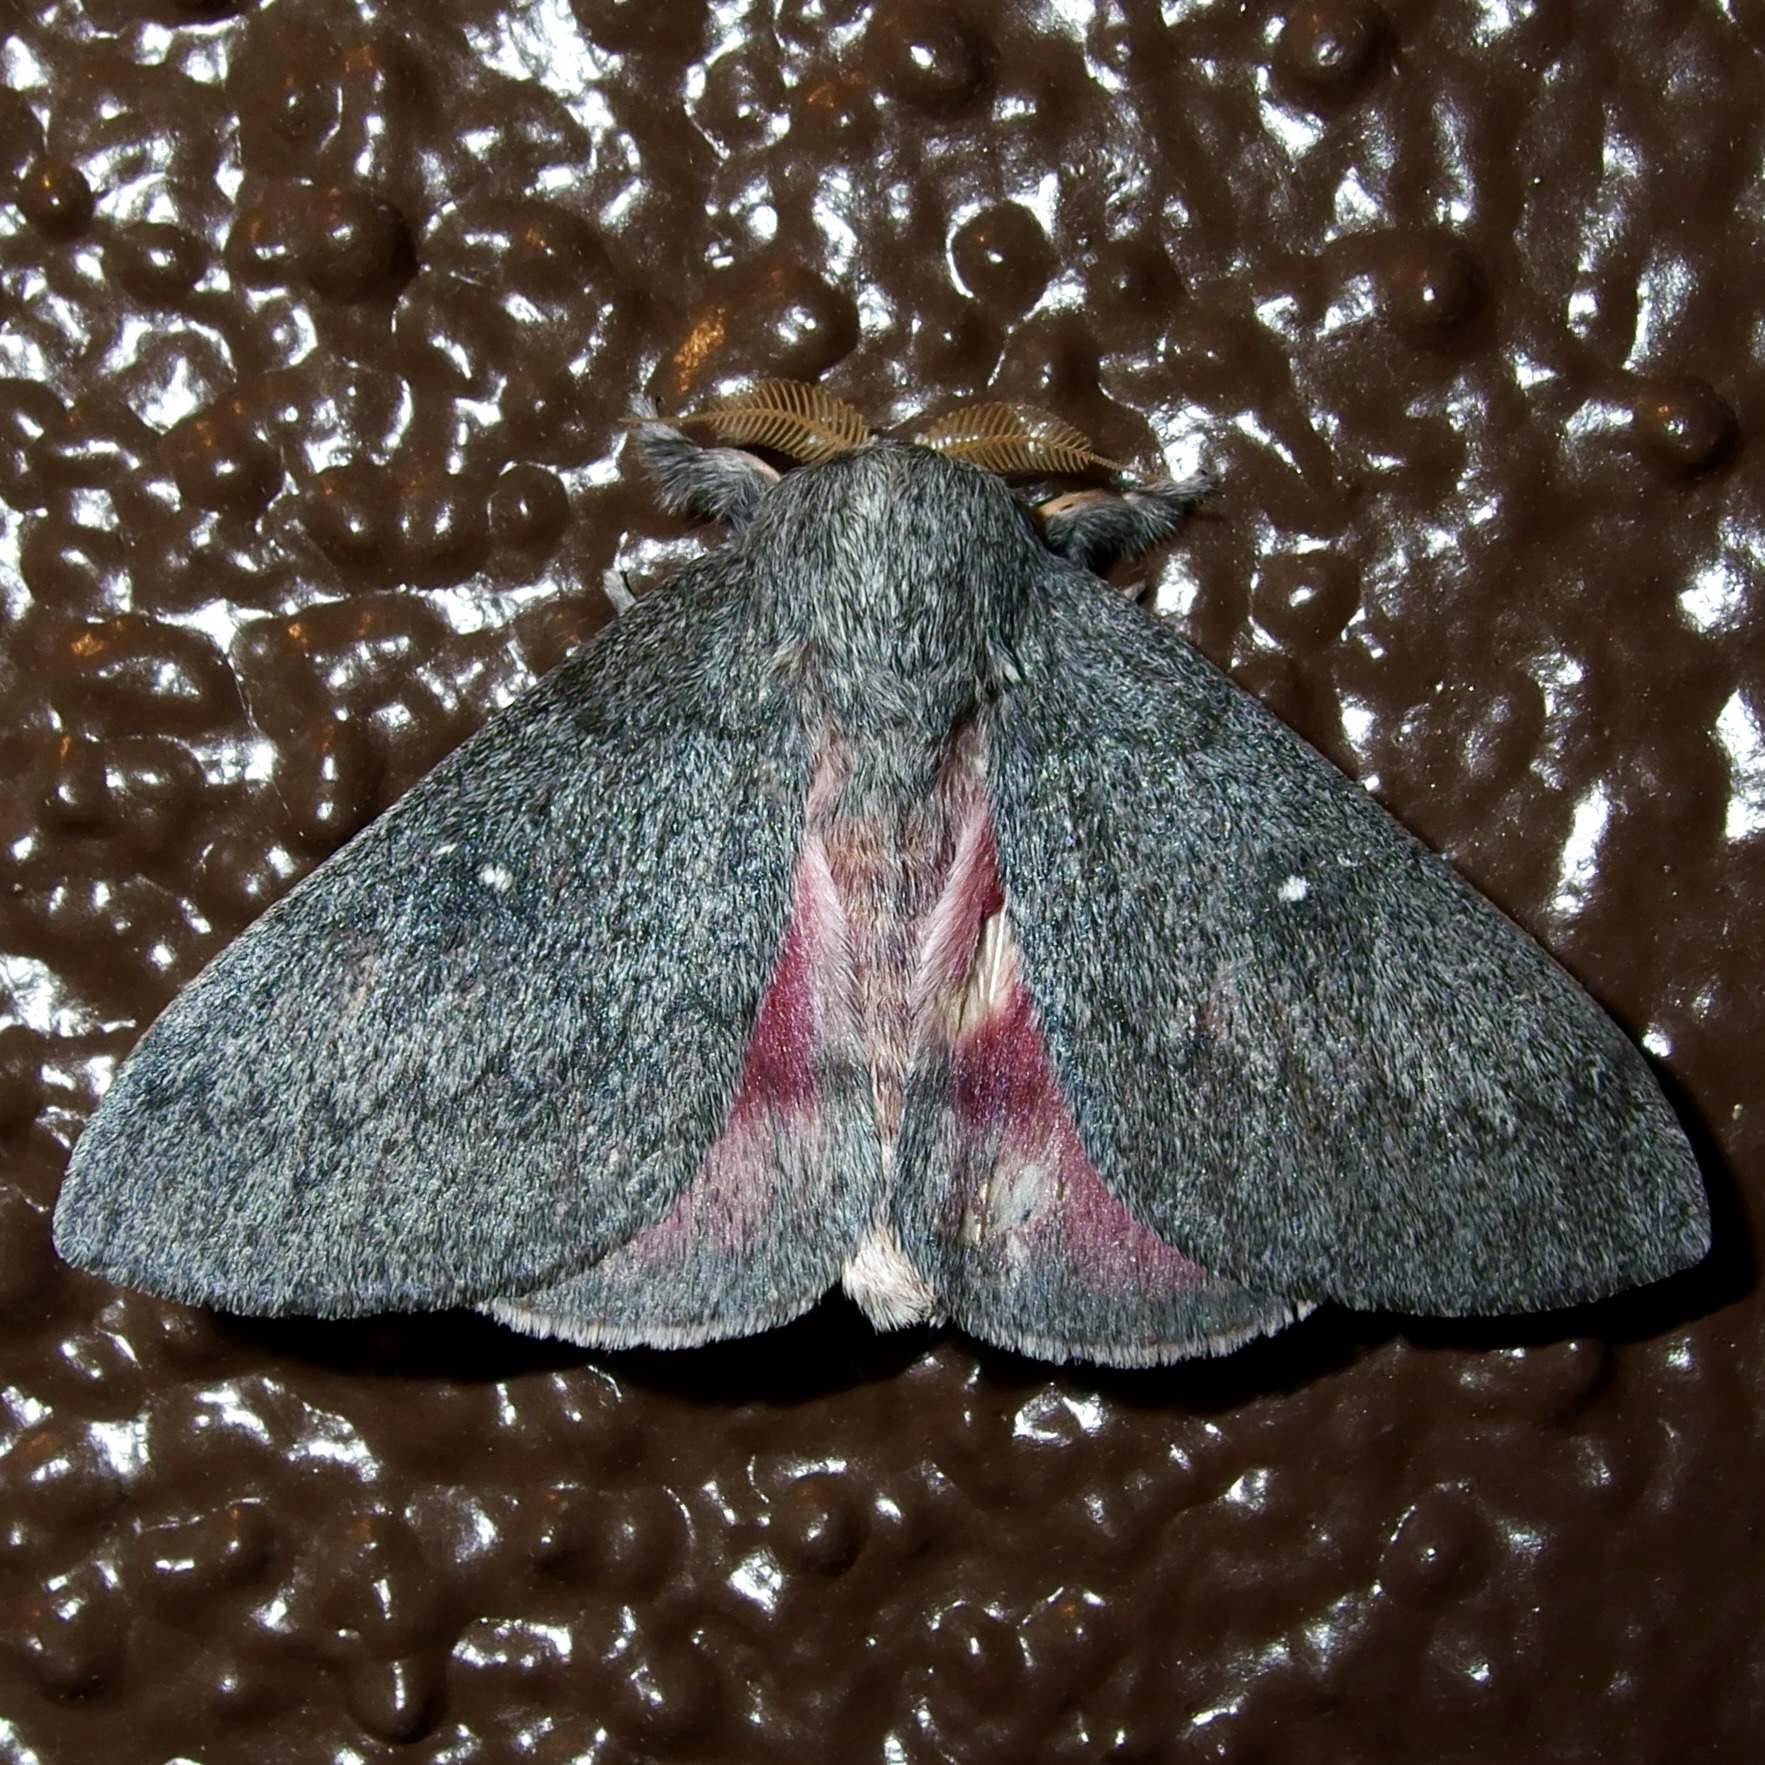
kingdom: Animalia
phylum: Arthropoda
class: Insecta
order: Lepidoptera
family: Saturniidae
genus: Syssphinx
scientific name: Syssphinx hubbardi
